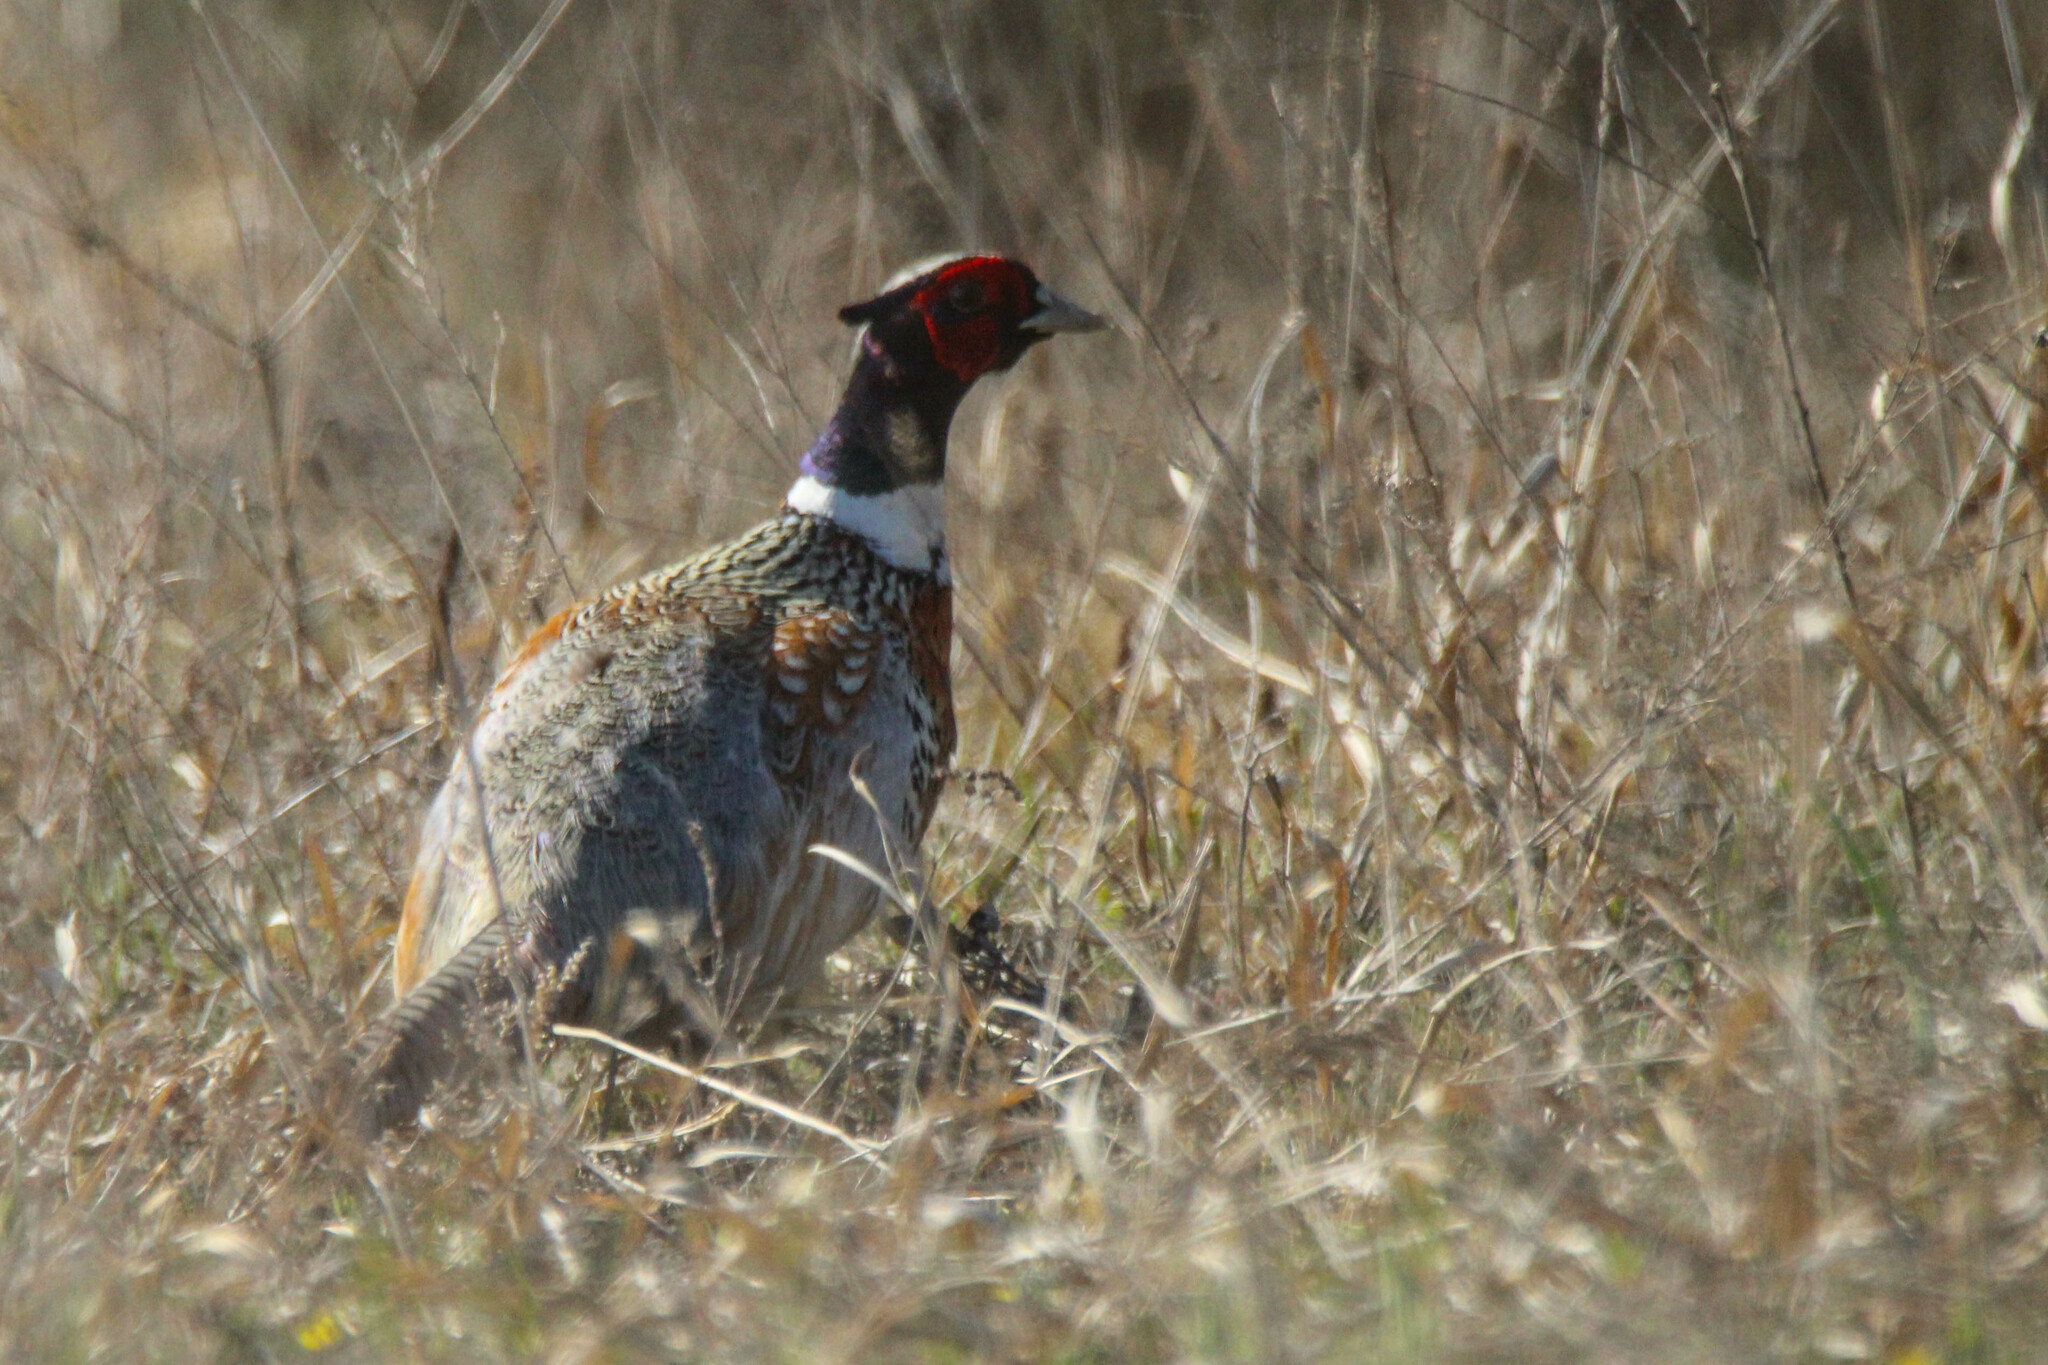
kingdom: Animalia
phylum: Chordata
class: Aves
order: Galliformes
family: Phasianidae
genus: Phasianus
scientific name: Phasianus colchicus
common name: Common pheasant
